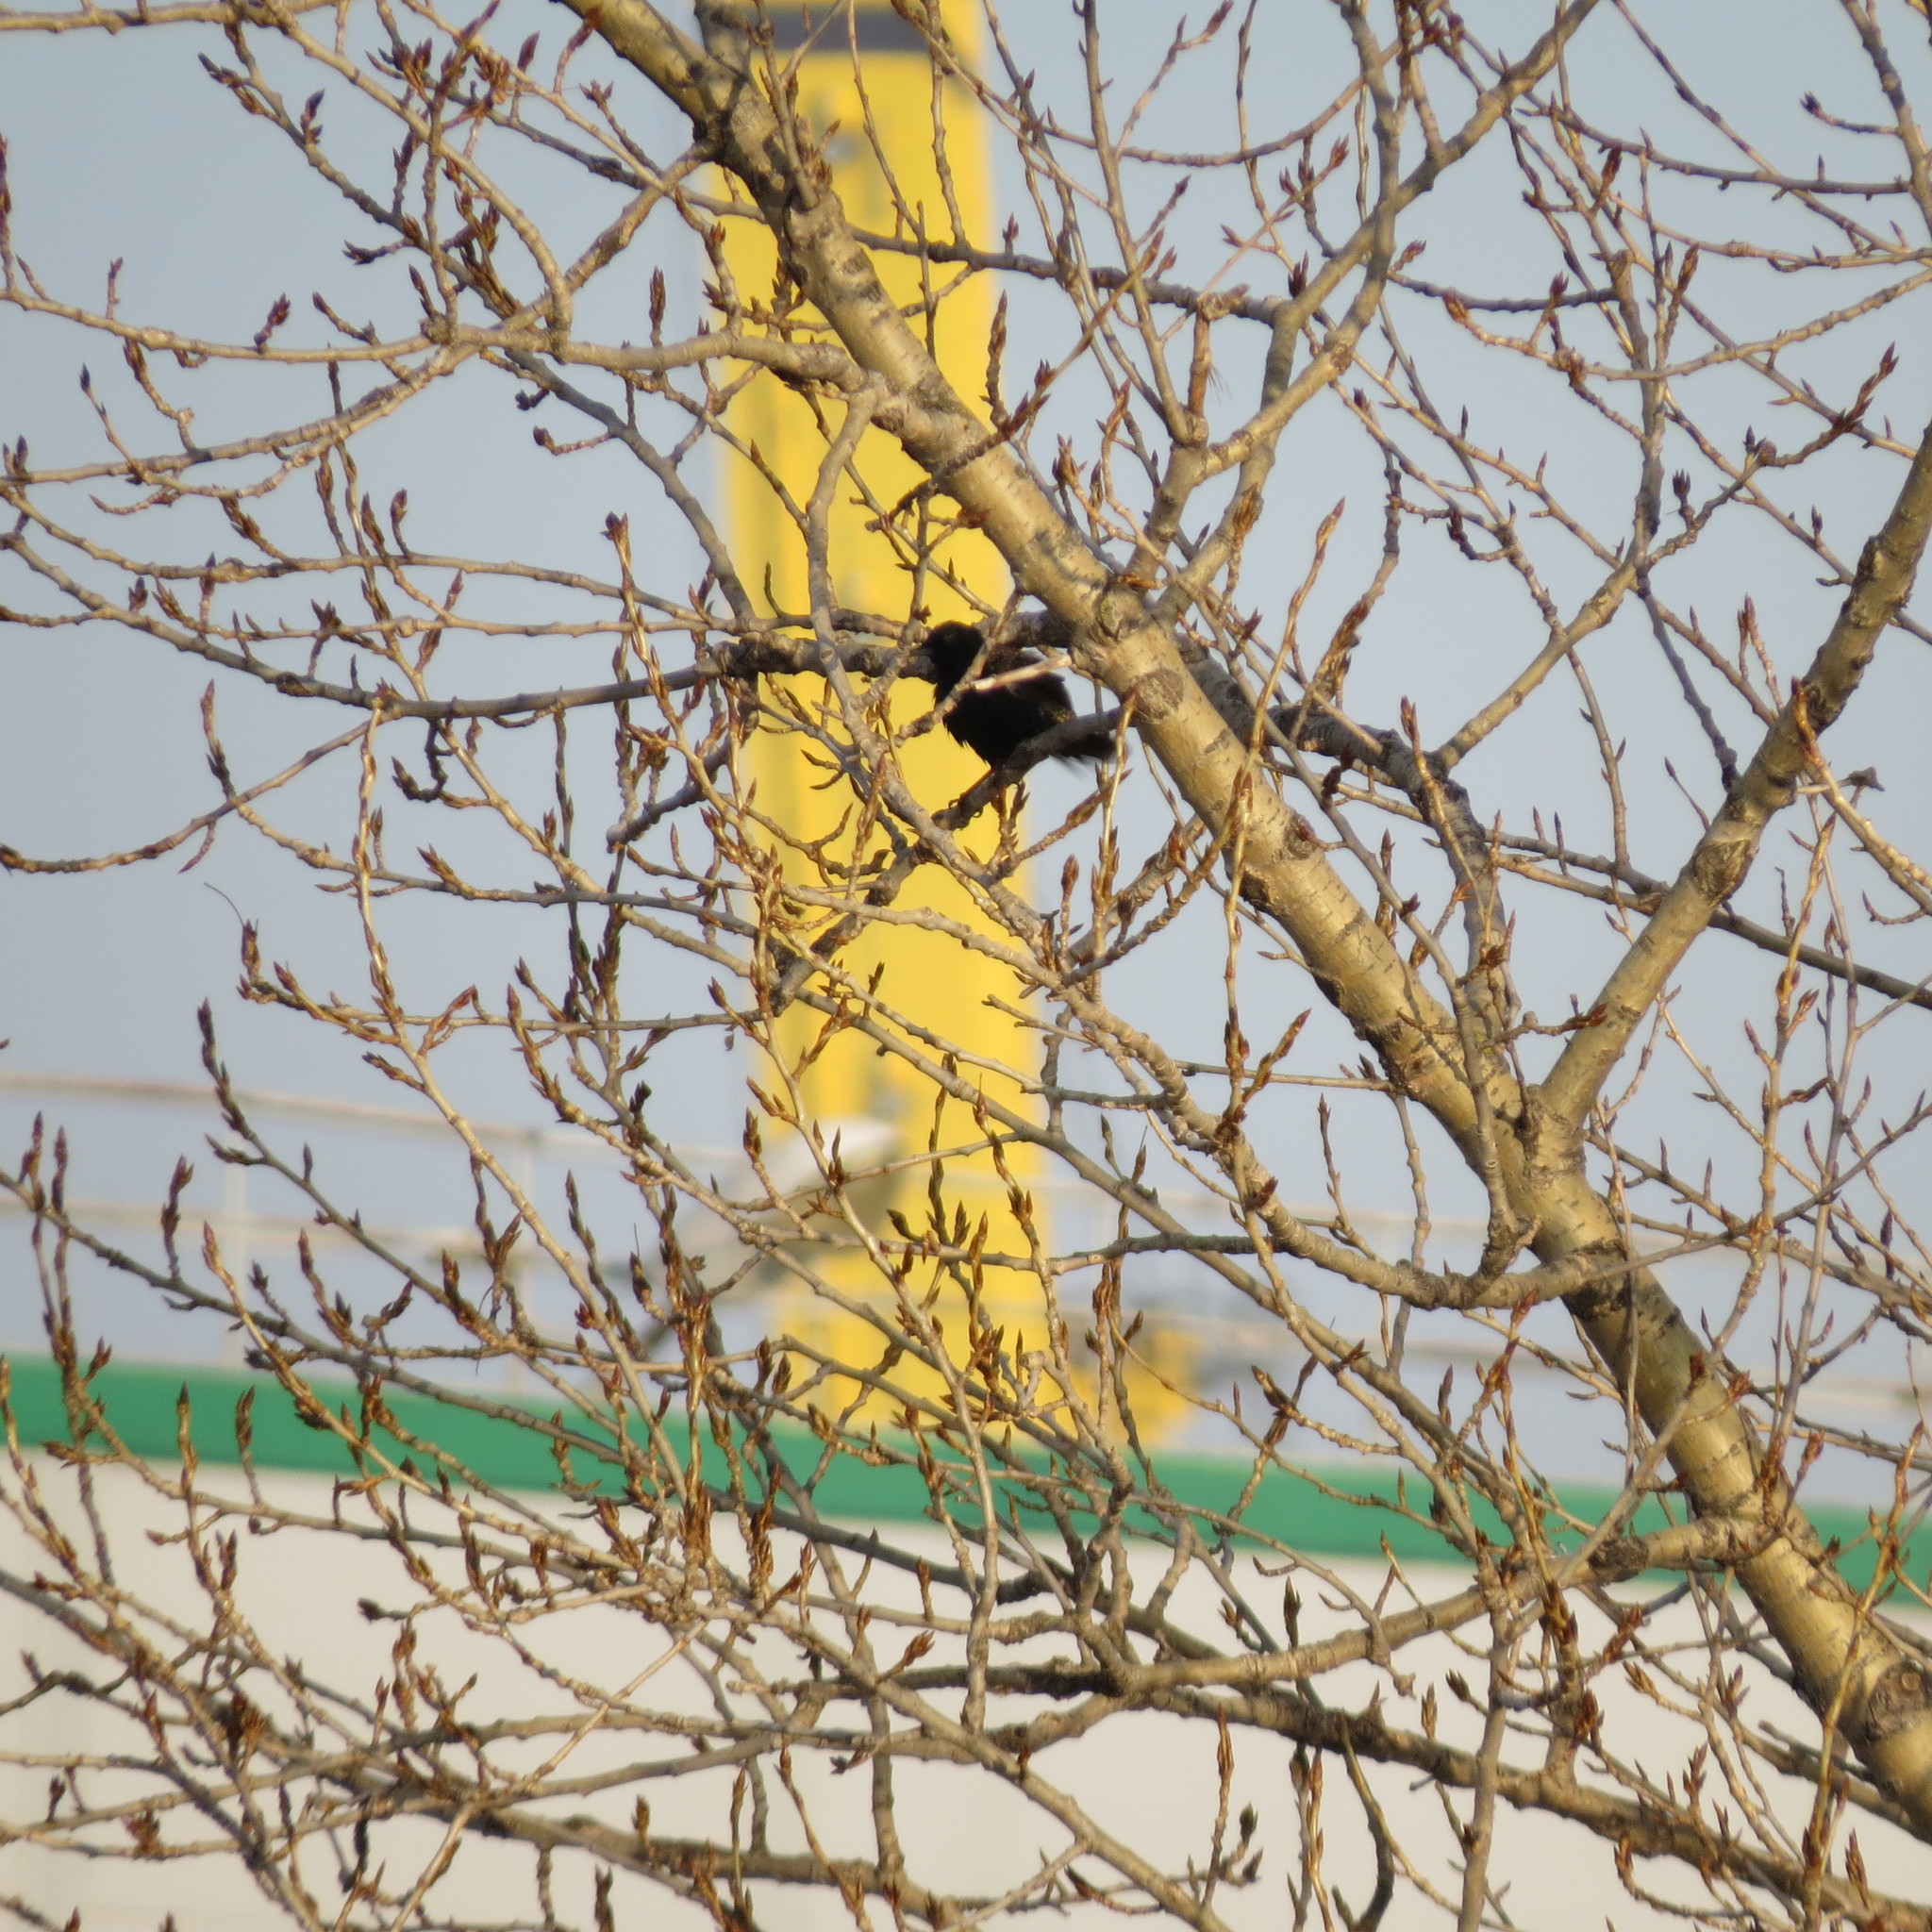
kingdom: Animalia
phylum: Chordata
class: Aves
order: Passeriformes
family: Sturnidae
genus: Sturnus
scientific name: Sturnus vulgaris
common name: Common starling
